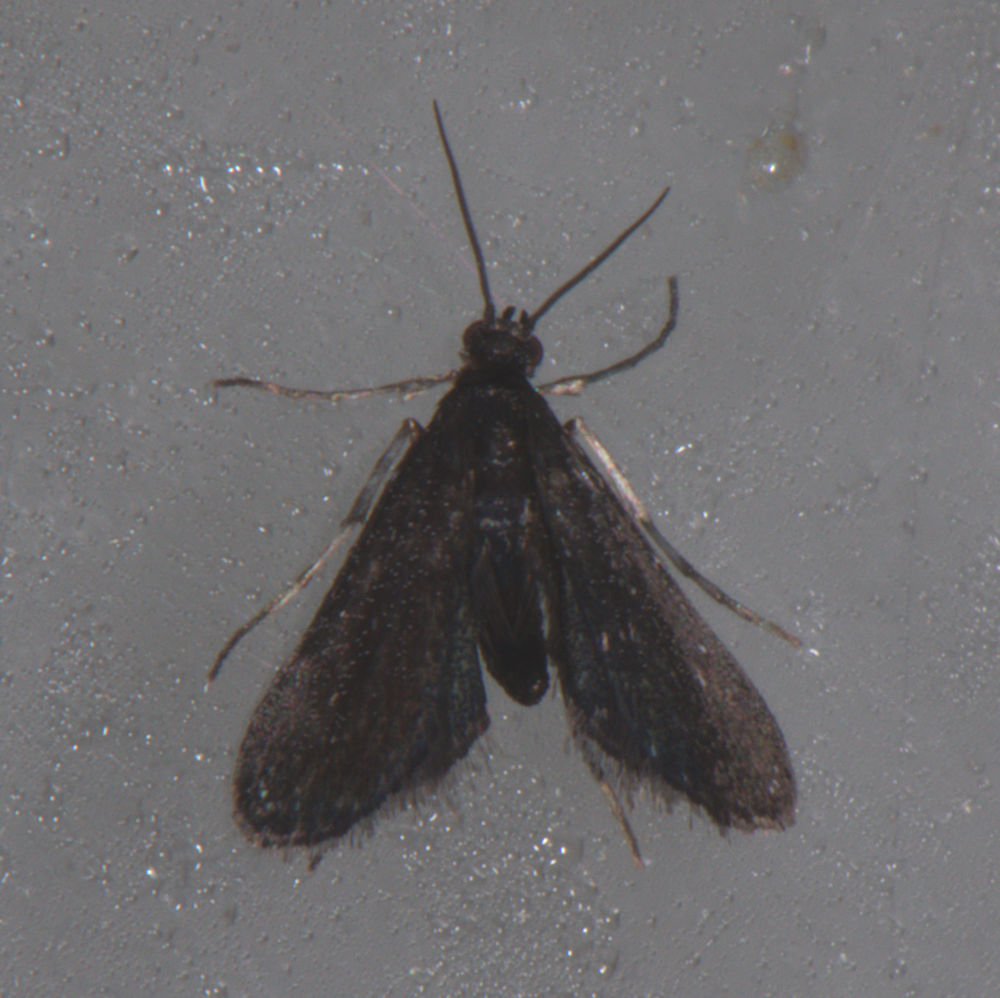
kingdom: Animalia
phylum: Arthropoda
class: Insecta
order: Lepidoptera
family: Crambidae
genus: Elophila
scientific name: Elophila tinealis
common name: Black duckweed moth
